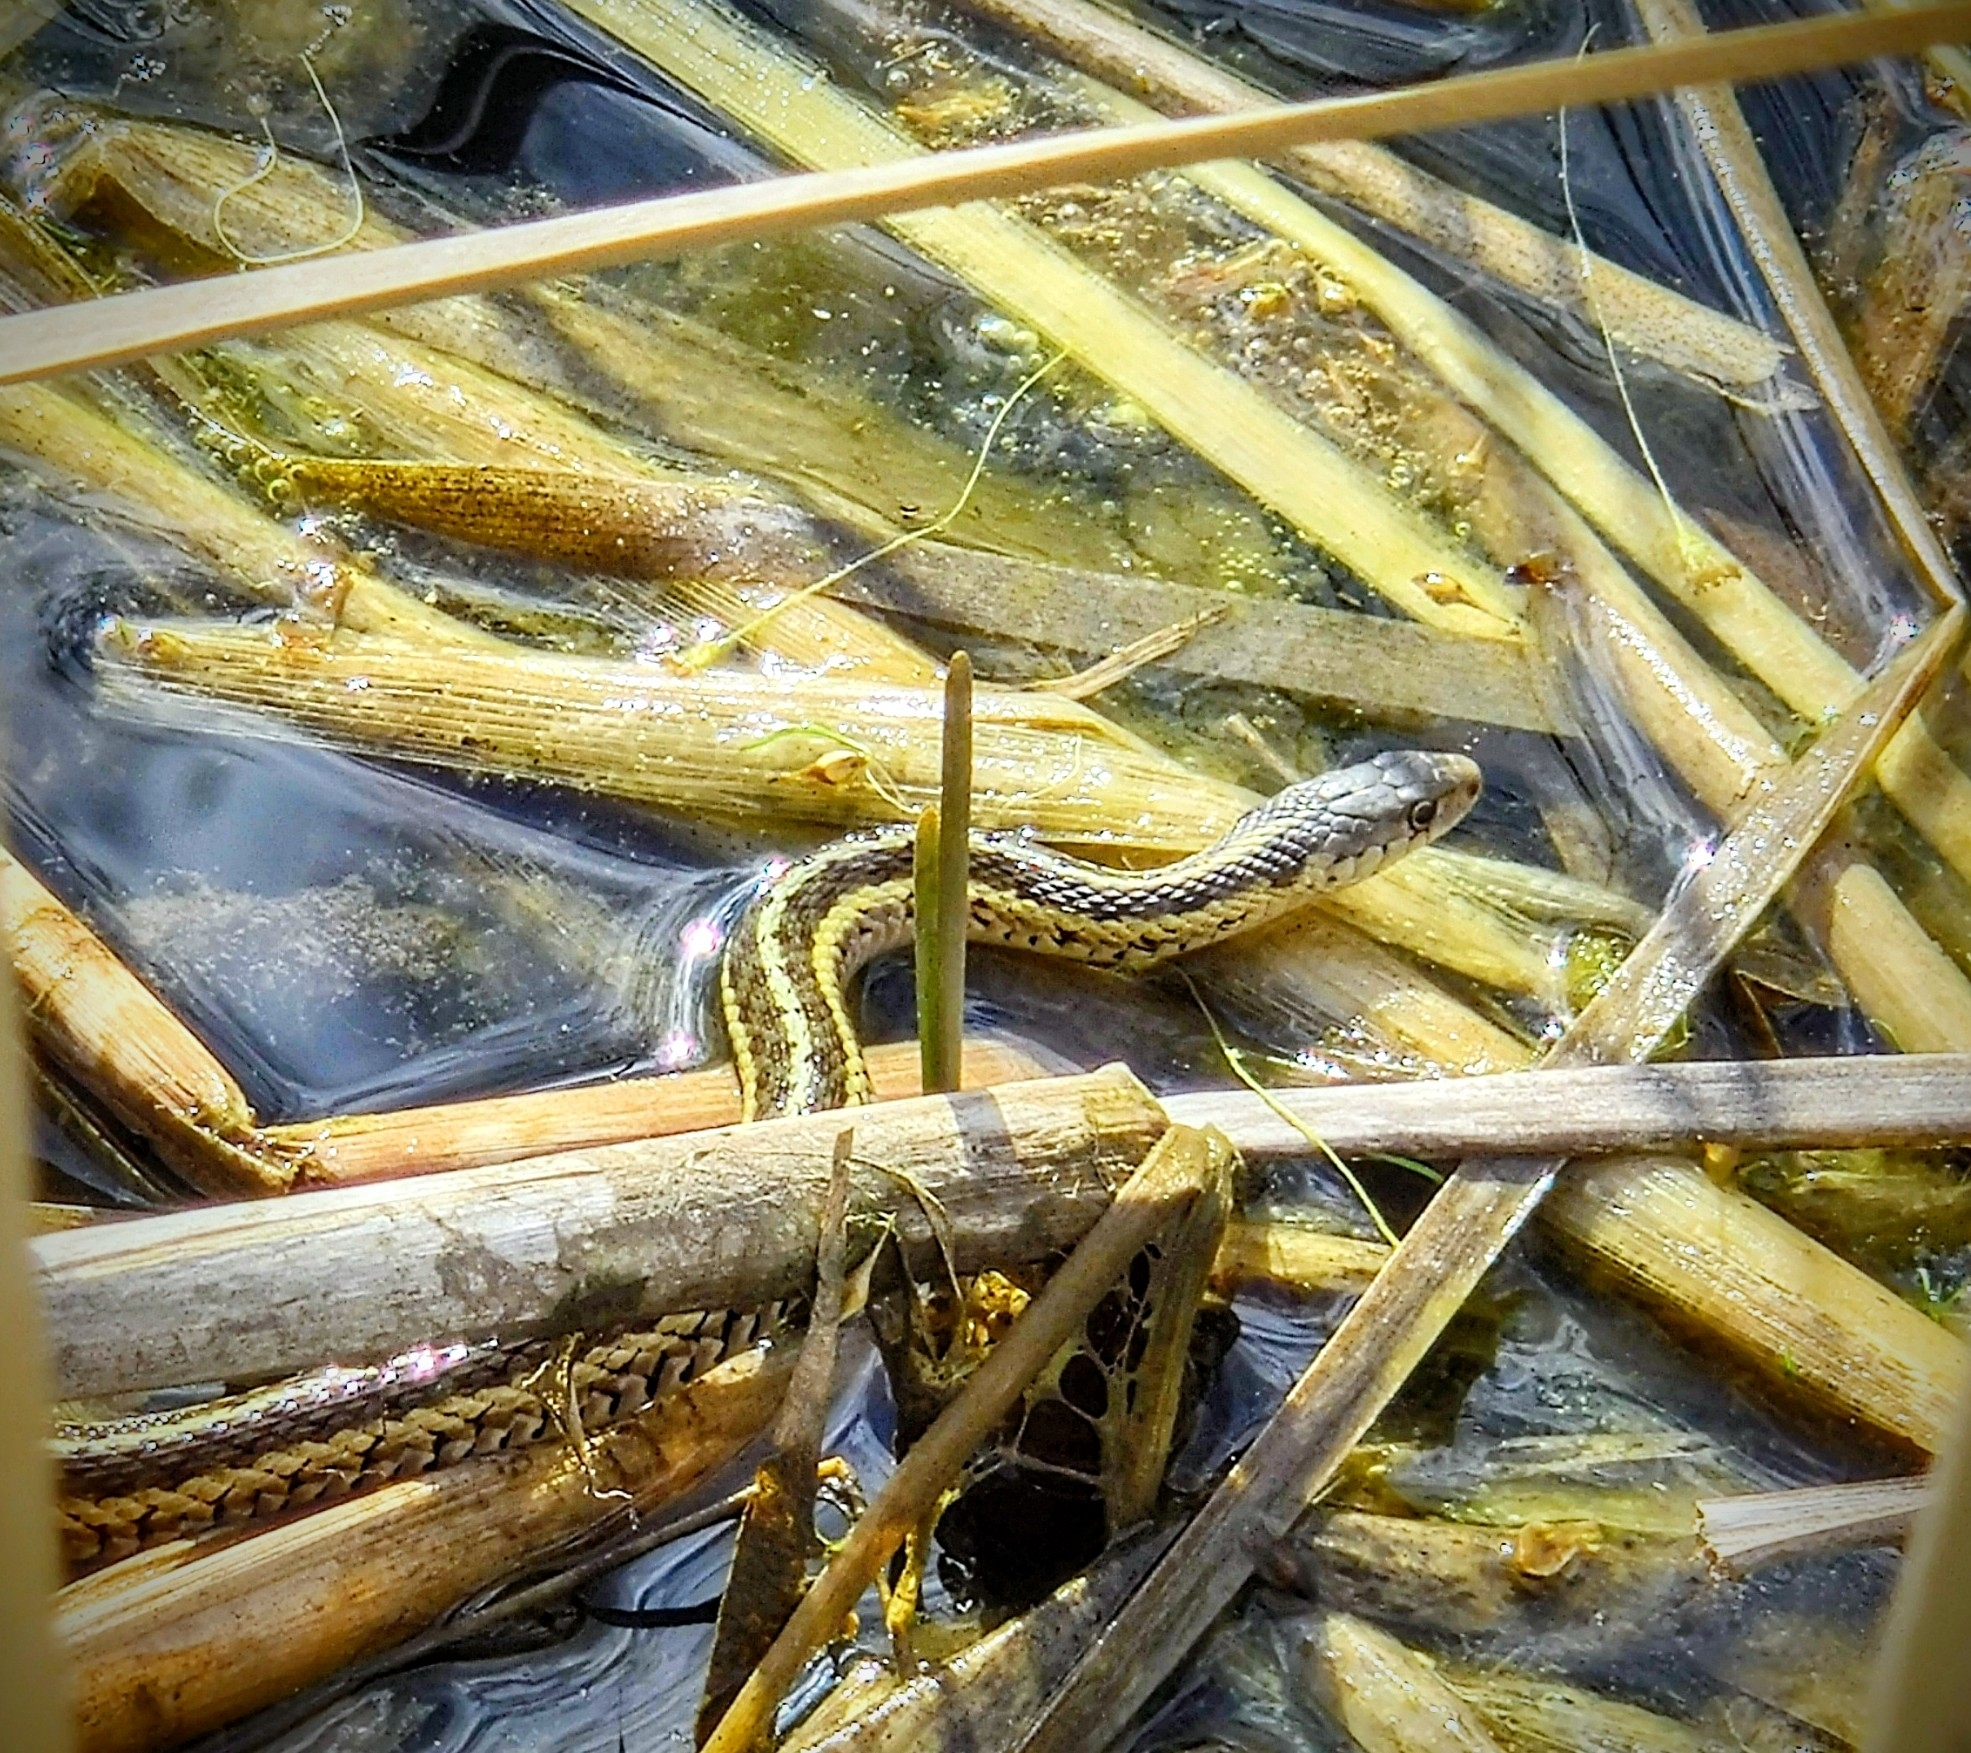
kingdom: Animalia
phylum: Chordata
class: Squamata
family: Colubridae
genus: Thamnophis
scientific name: Thamnophis sirtalis
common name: Common garter snake
